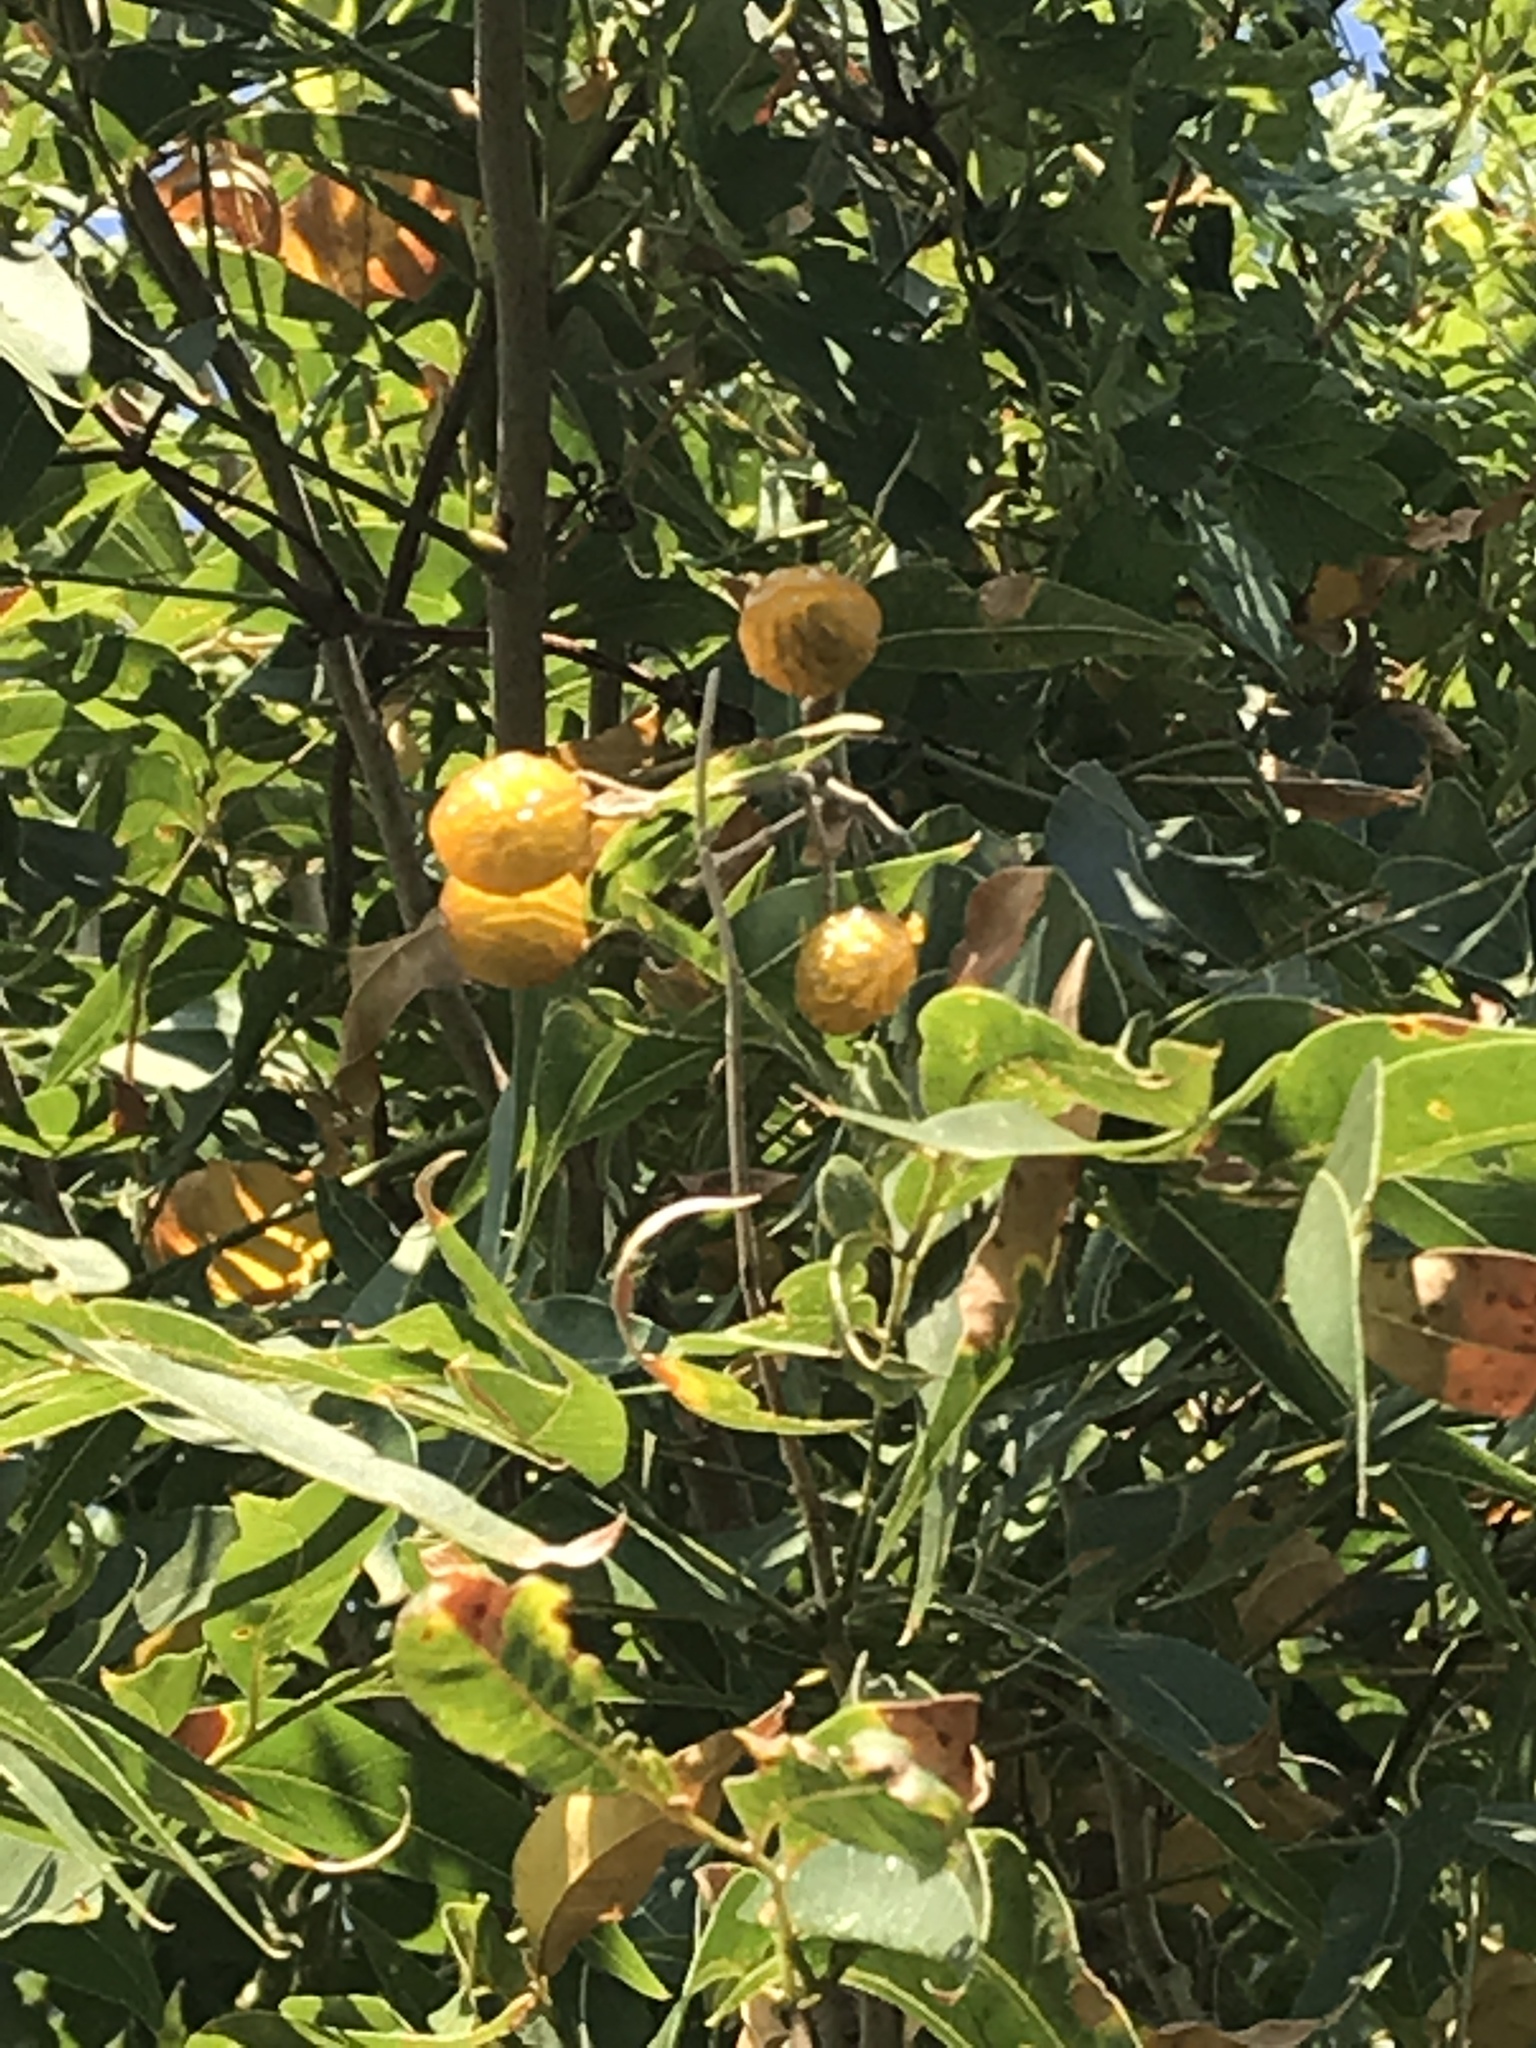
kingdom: Plantae
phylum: Tracheophyta
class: Magnoliopsida
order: Sapindales
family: Sapindaceae
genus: Sapindus
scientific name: Sapindus drummondii
